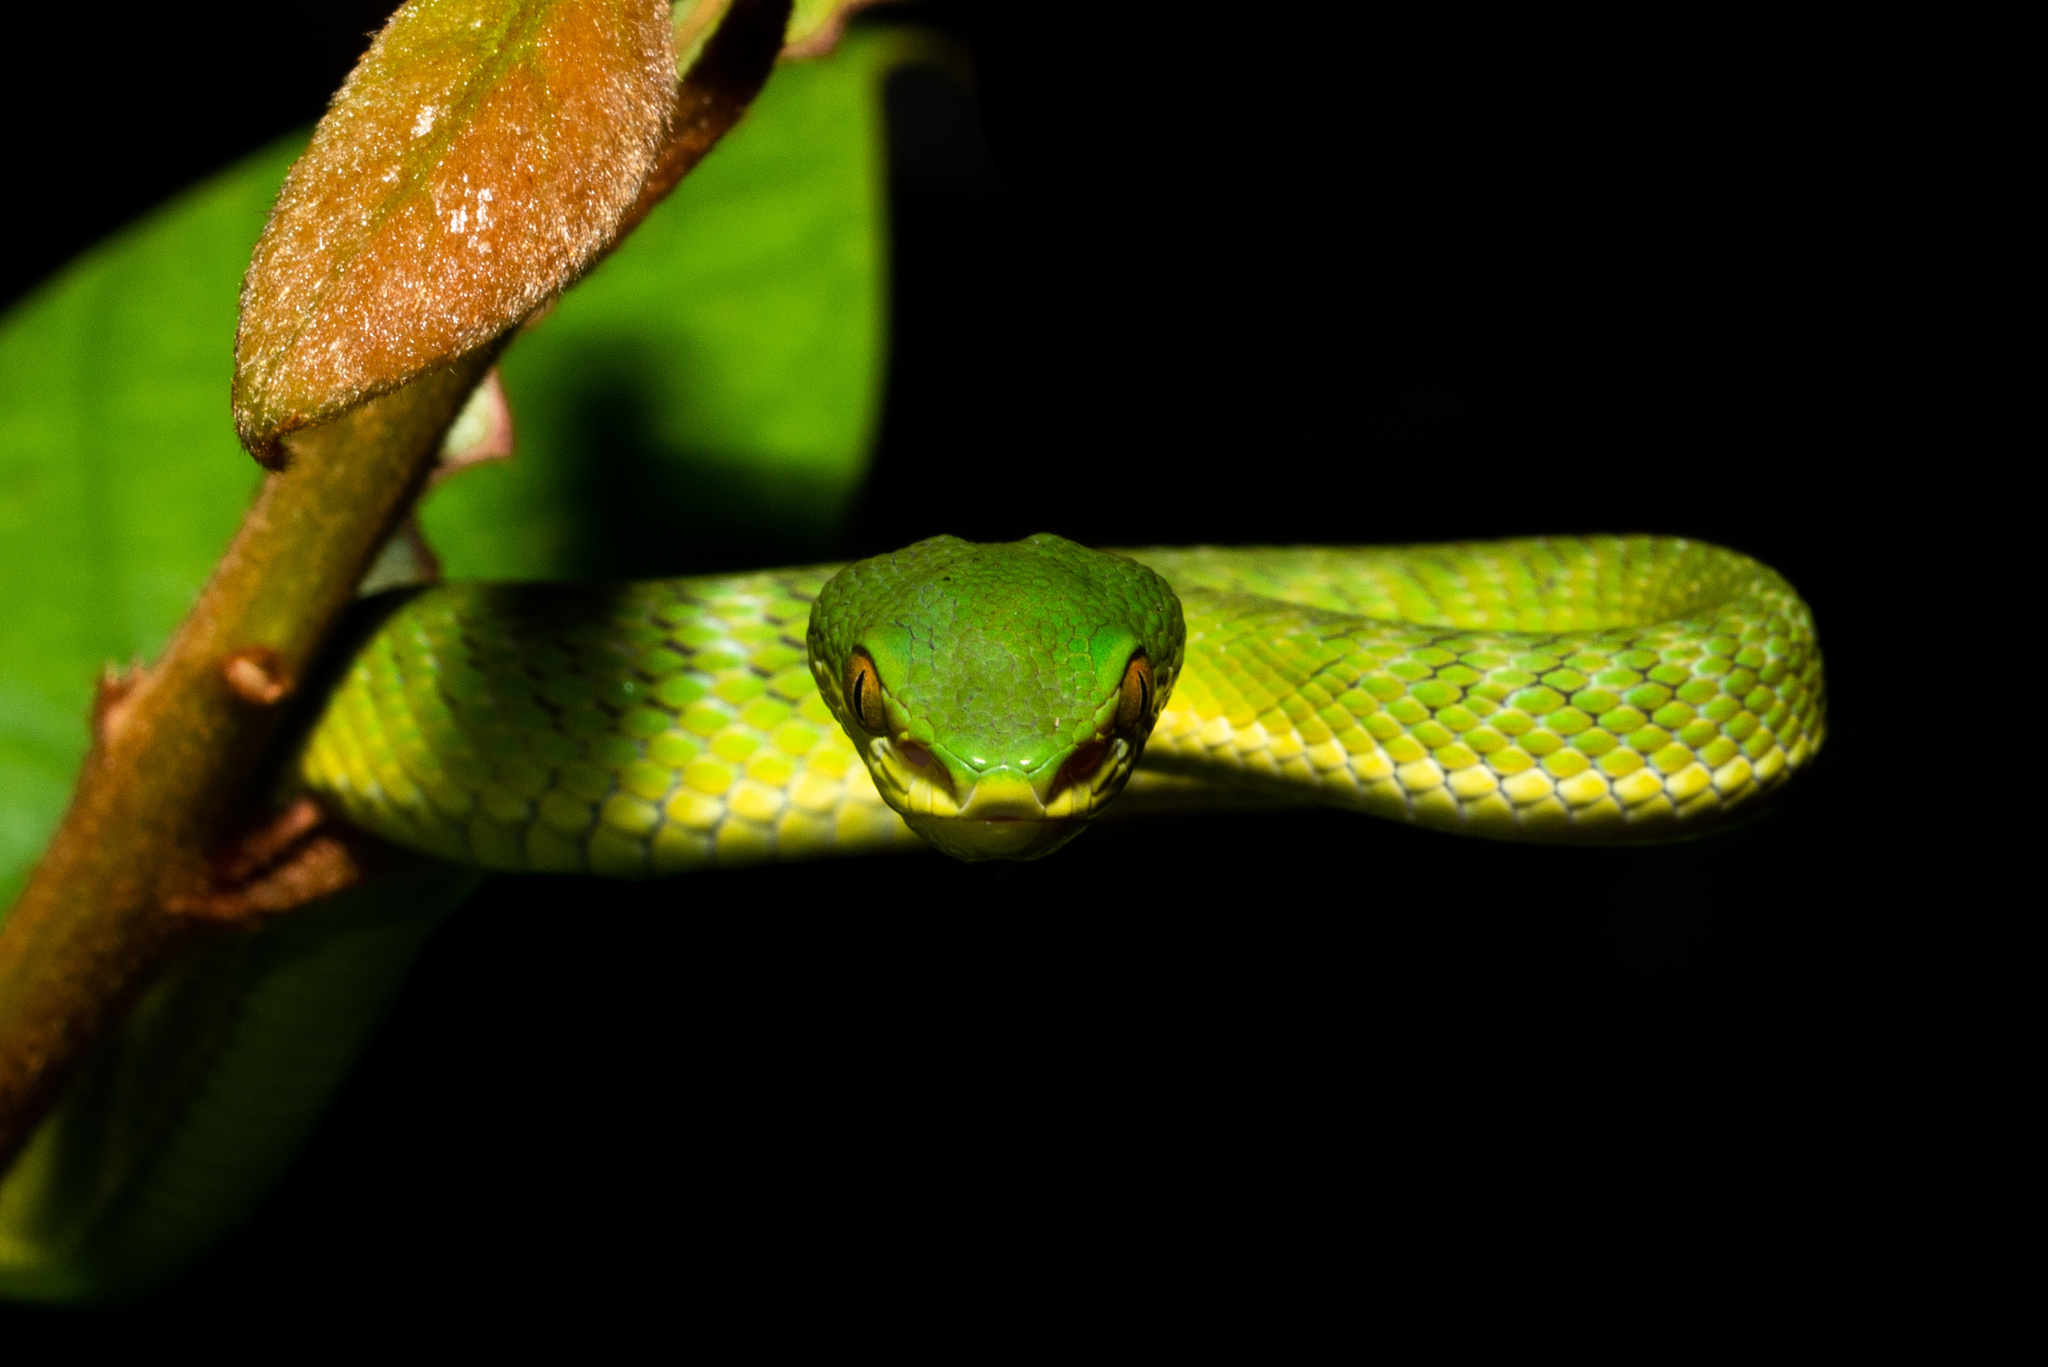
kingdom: Animalia
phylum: Chordata
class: Squamata
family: Viperidae
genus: Trimeresurus
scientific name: Trimeresurus albolabris
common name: White-lipped pitviper
